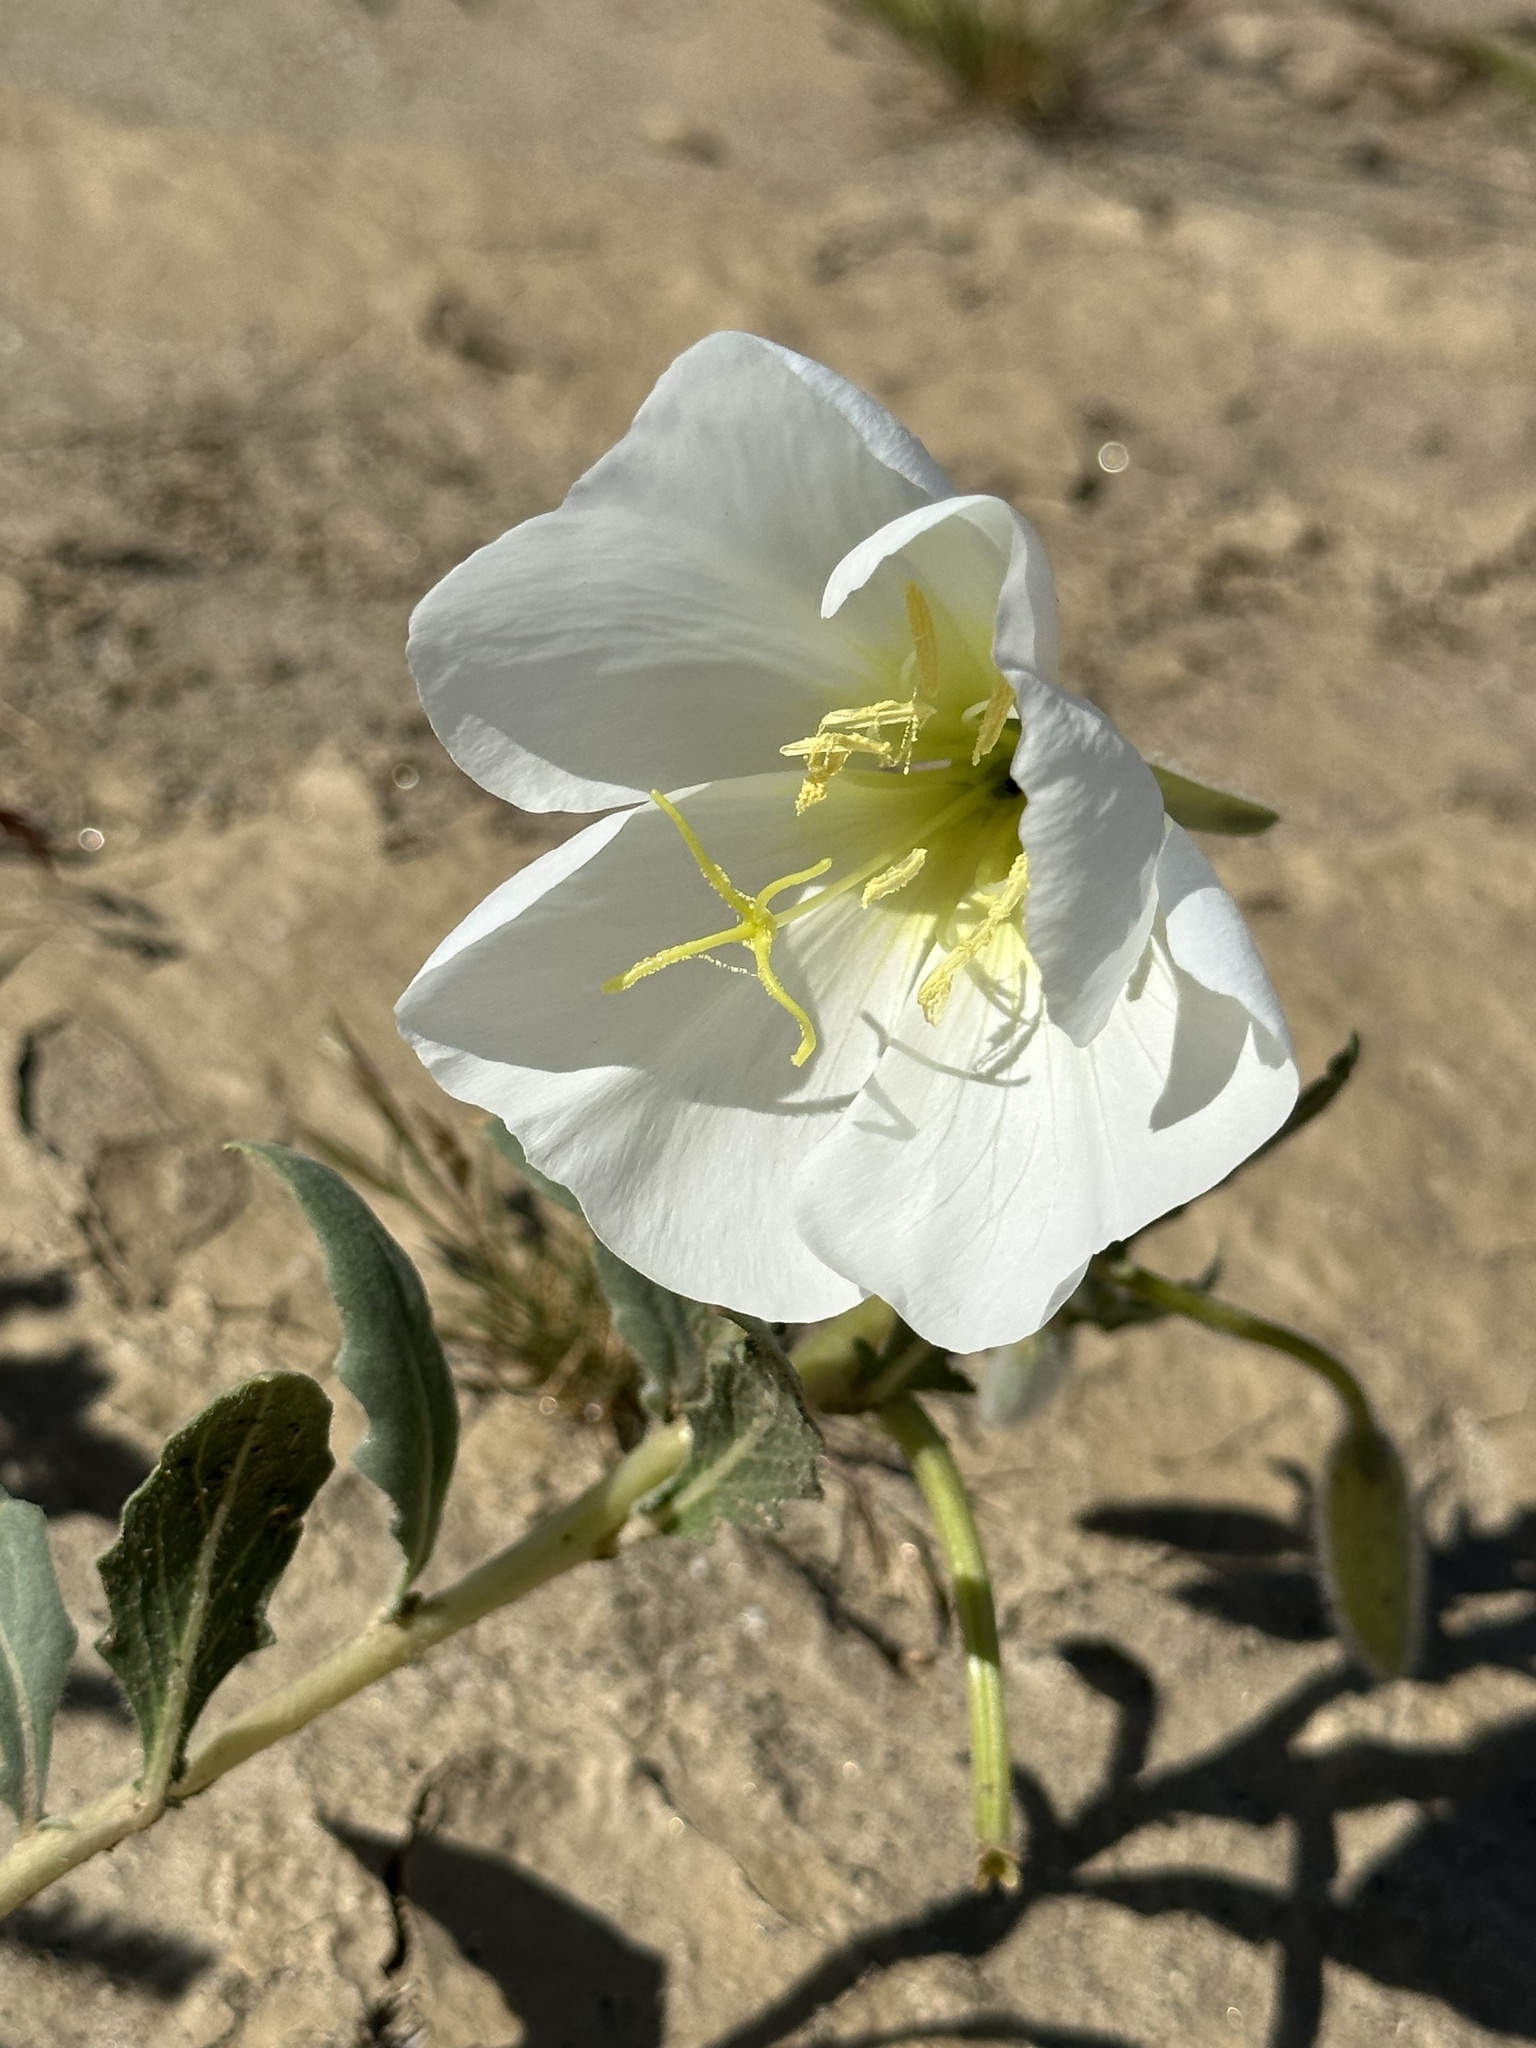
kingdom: Plantae
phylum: Tracheophyta
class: Magnoliopsida
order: Myrtales
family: Onagraceae
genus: Oenothera
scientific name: Oenothera deltoides
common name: Basket evening-primrose
